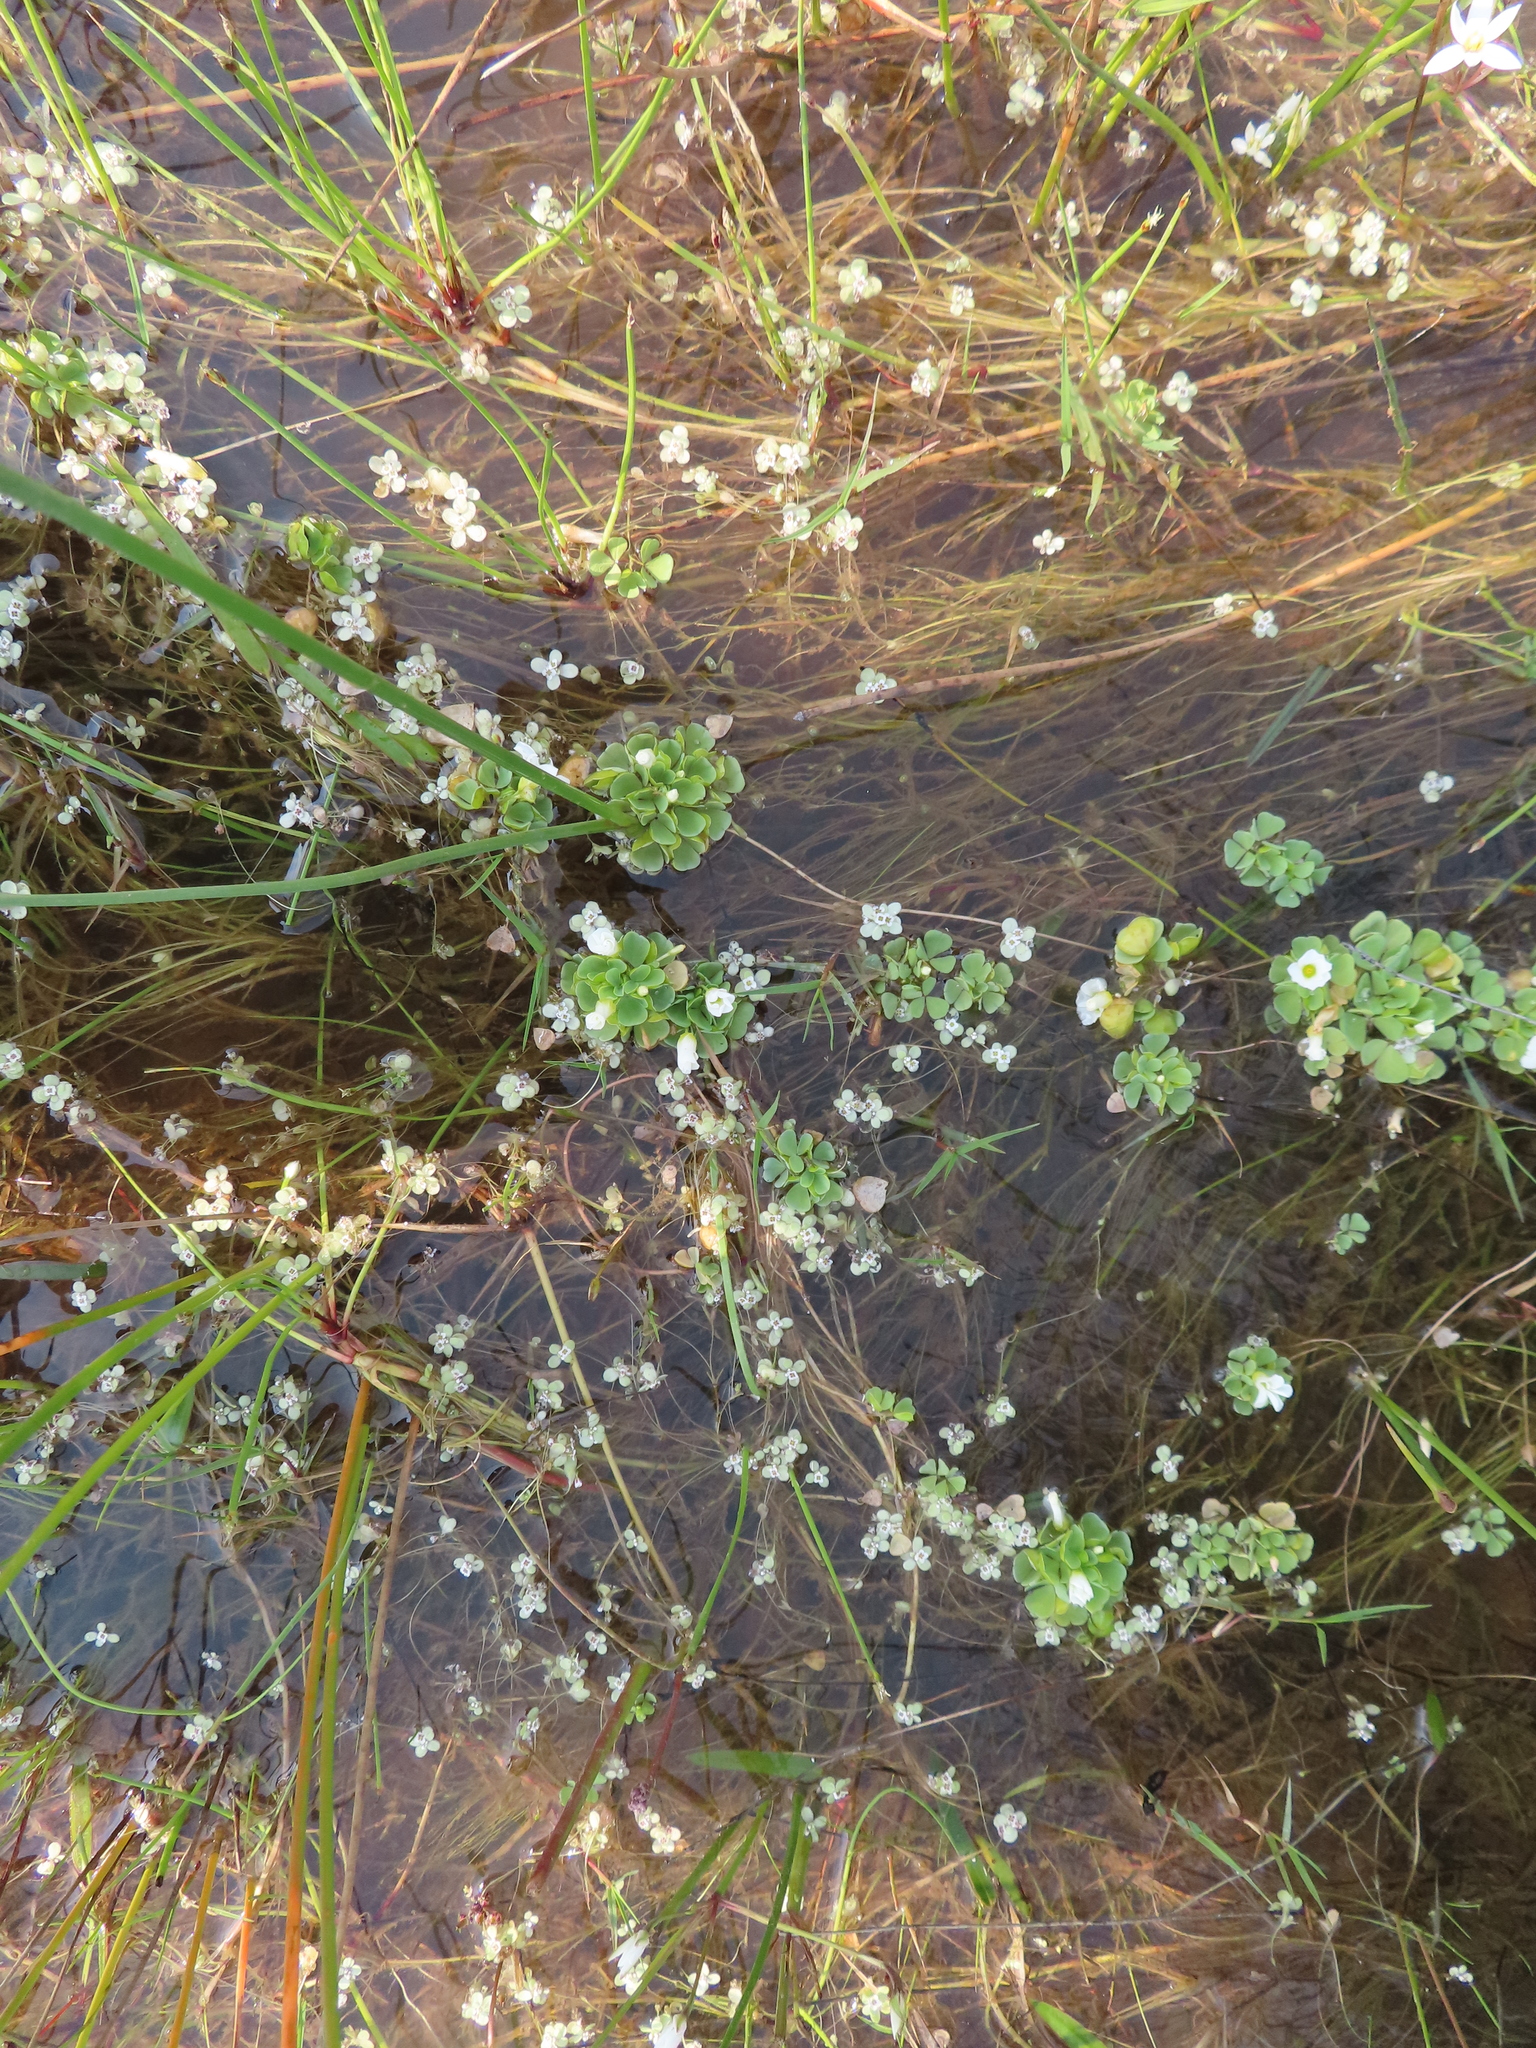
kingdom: Plantae
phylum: Tracheophyta
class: Magnoliopsida
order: Oxalidales
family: Oxalidaceae
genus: Oxalis
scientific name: Oxalis natans
